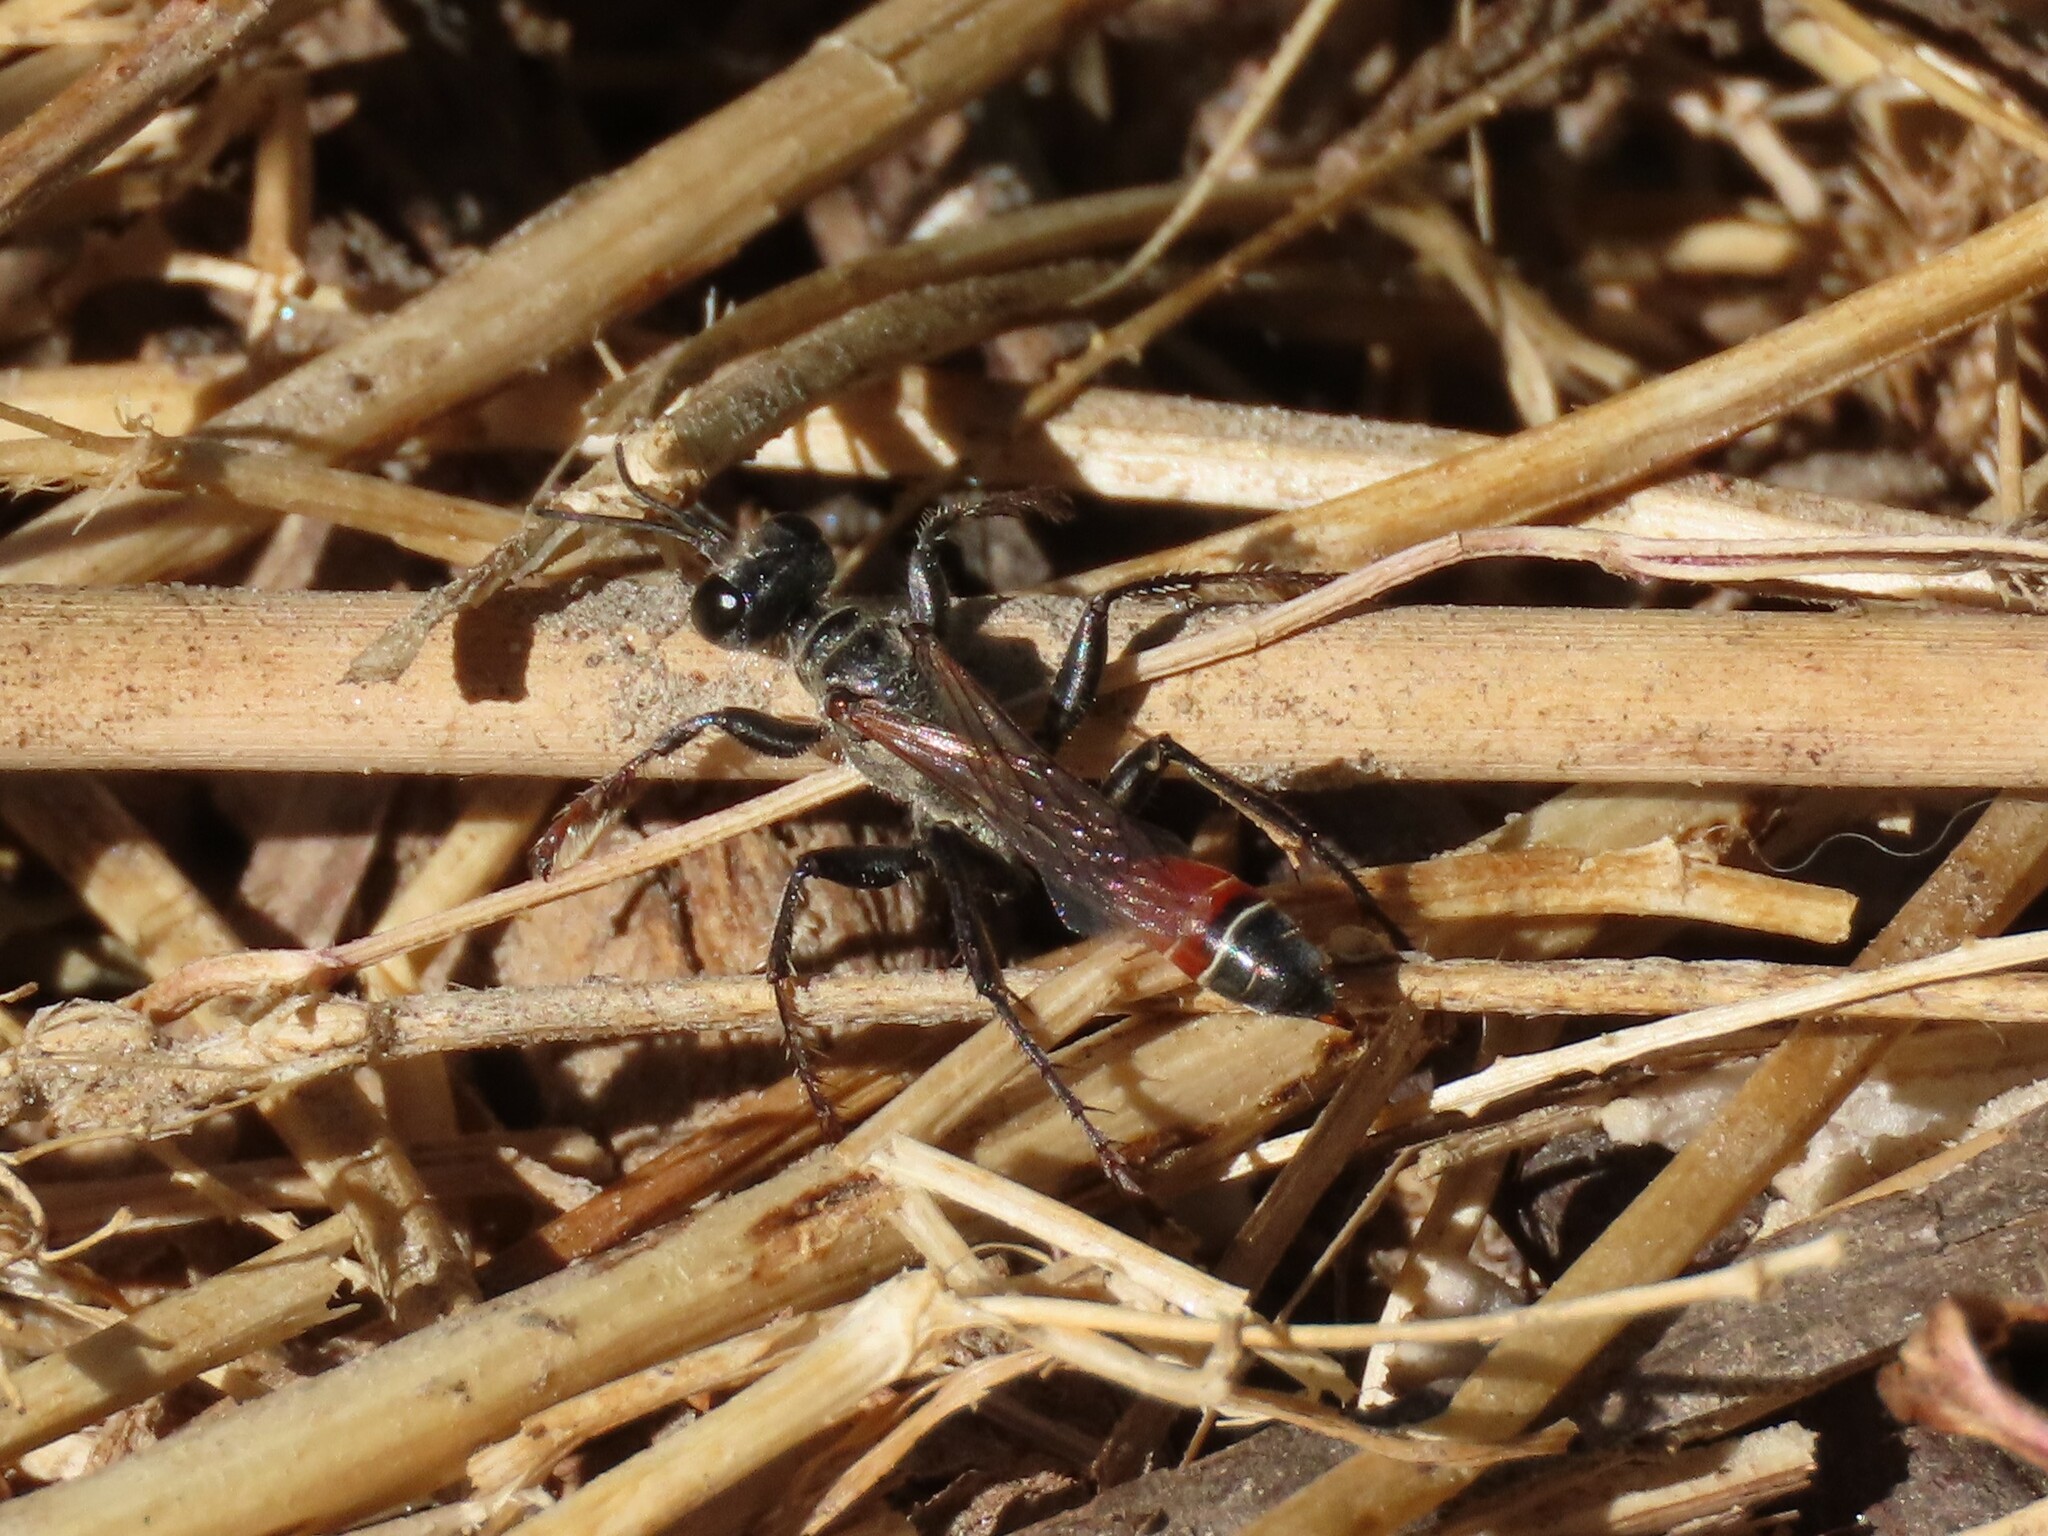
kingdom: Animalia
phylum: Arthropoda
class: Insecta
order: Hymenoptera
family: Sphecidae
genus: Prionyx
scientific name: Prionyx kirbii
